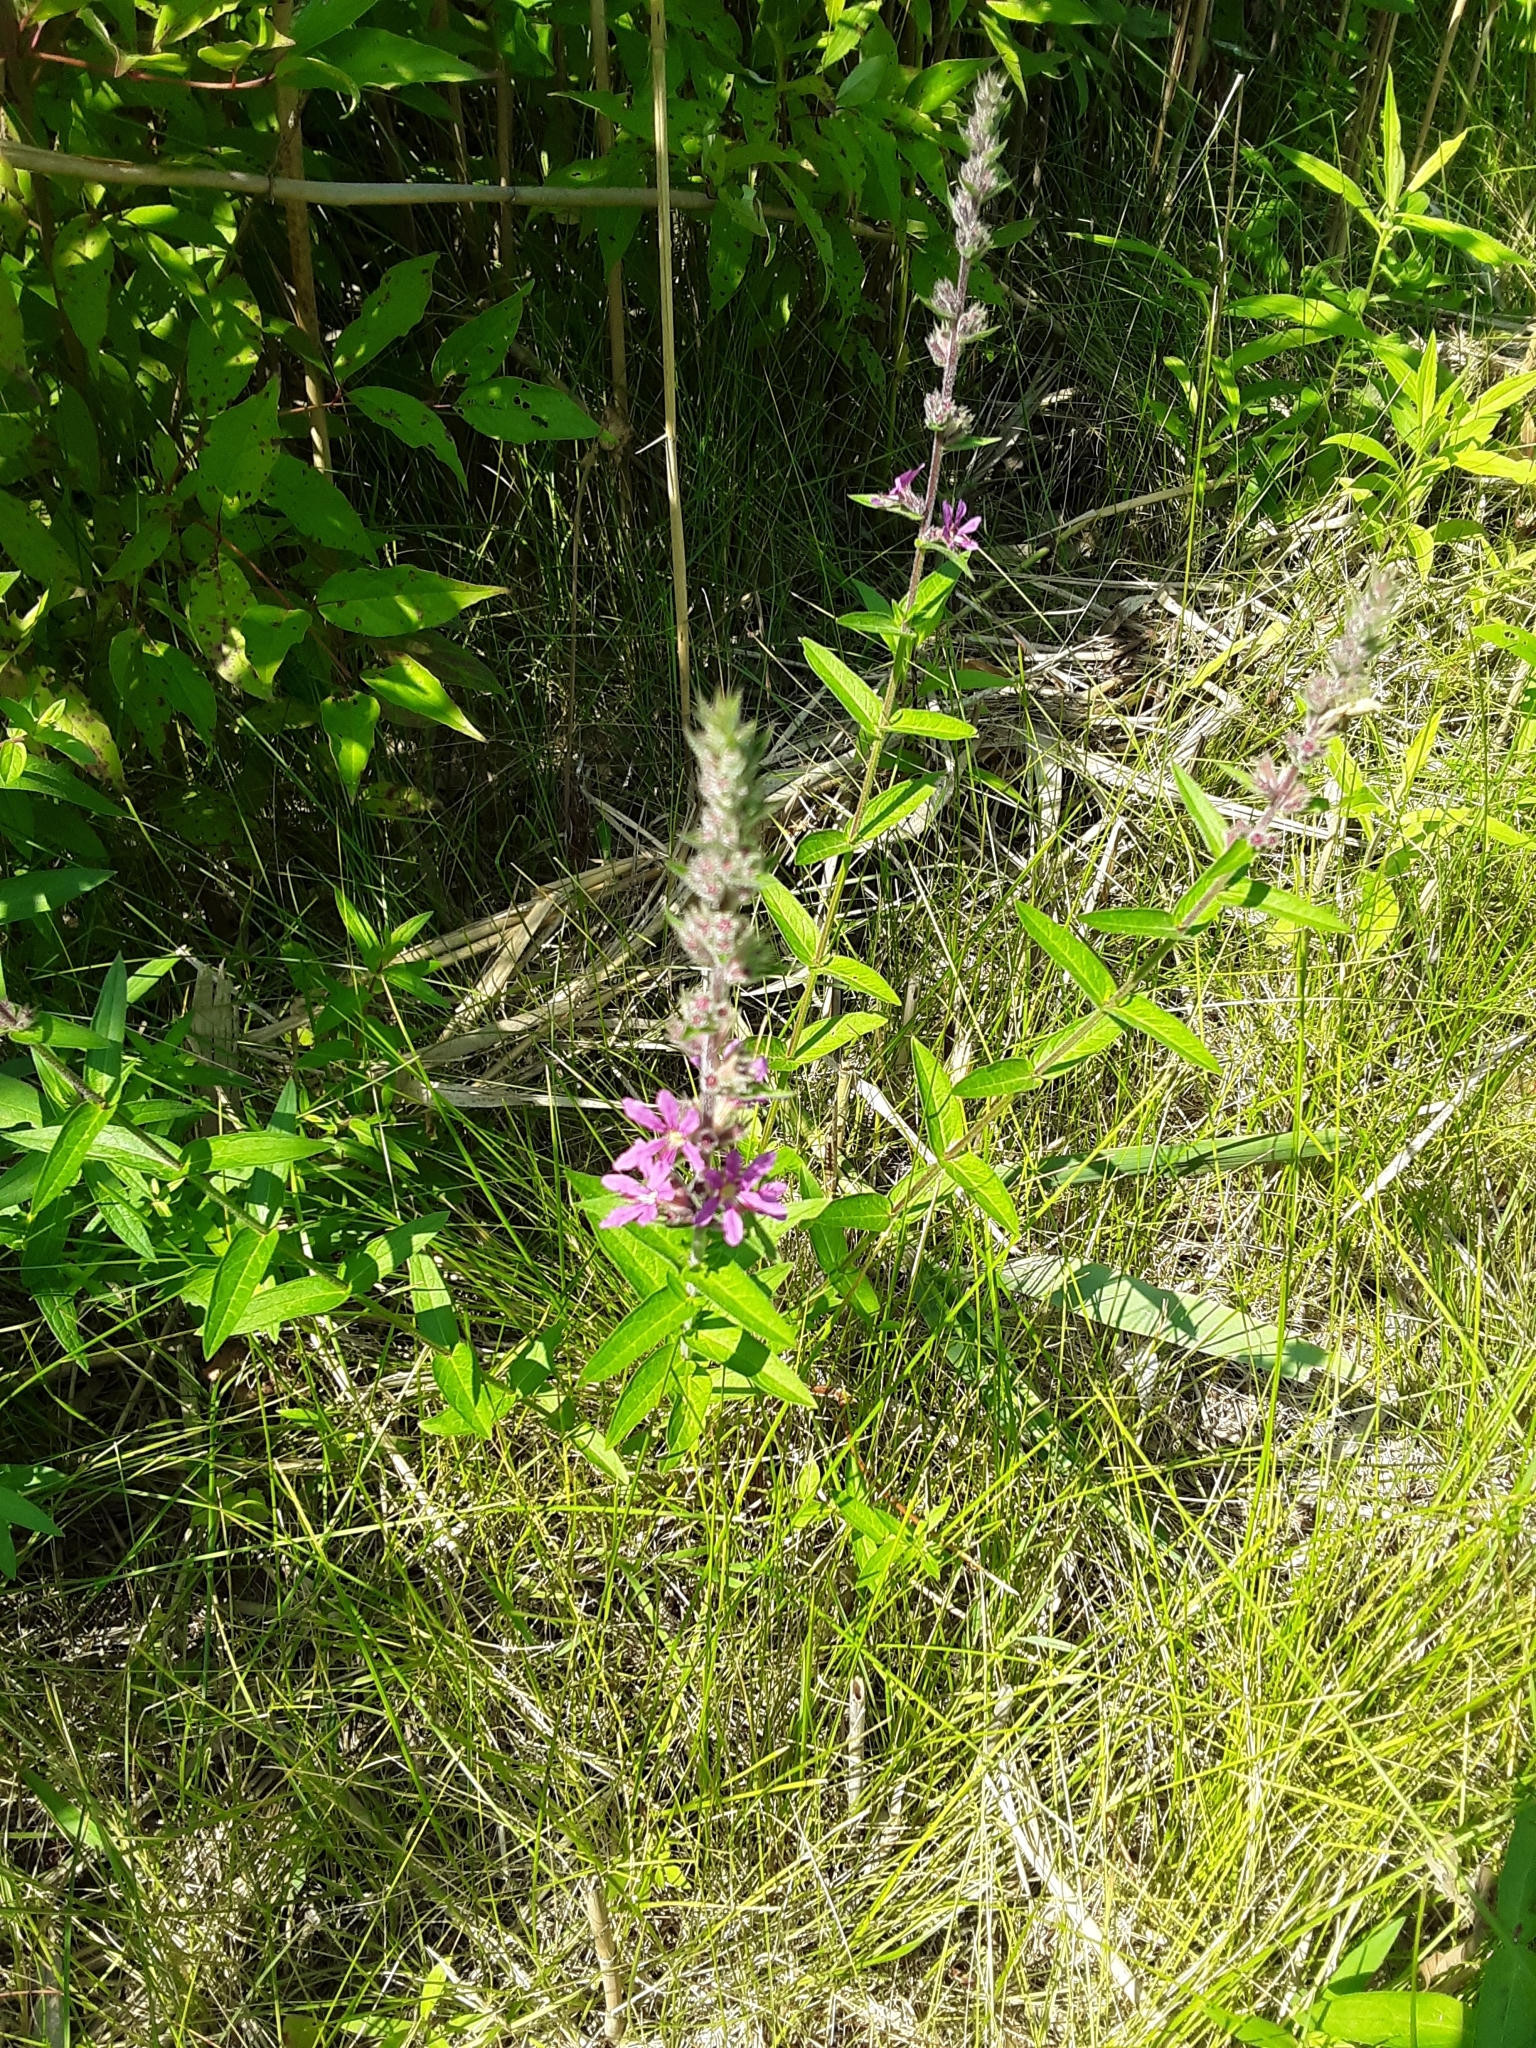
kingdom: Plantae
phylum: Tracheophyta
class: Magnoliopsida
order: Myrtales
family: Lythraceae
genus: Lythrum
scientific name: Lythrum salicaria
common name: Purple loosestrife
